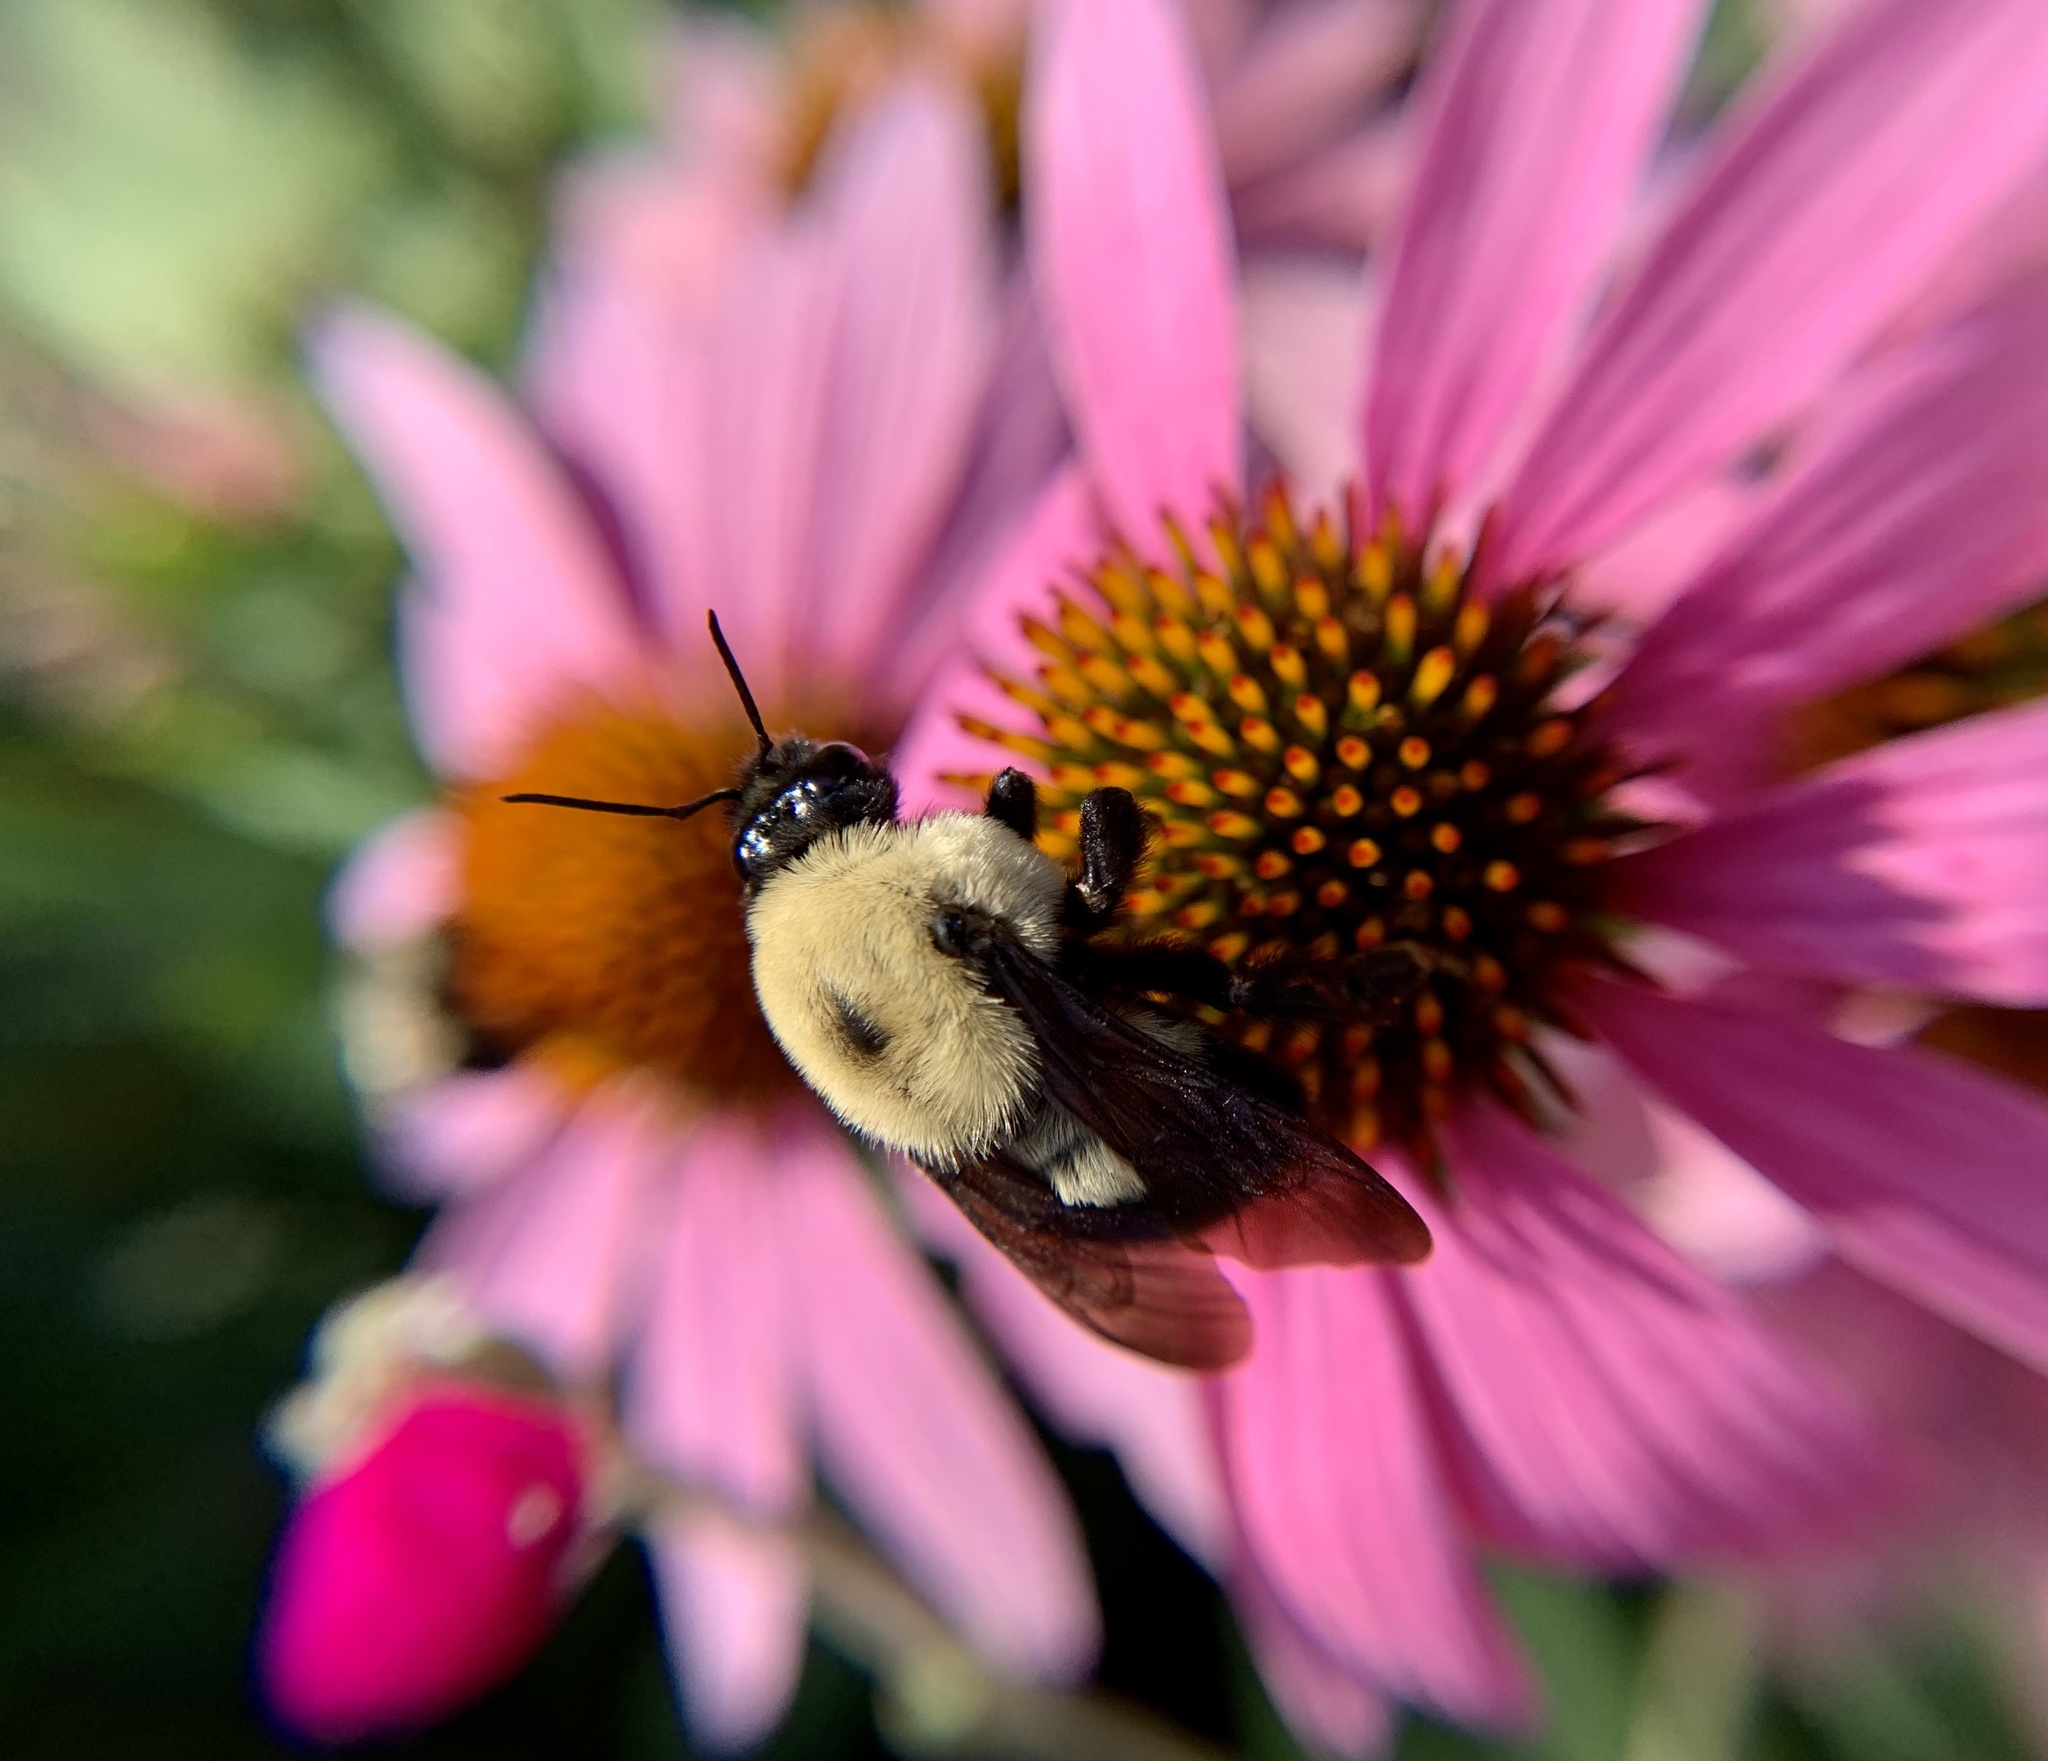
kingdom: Animalia
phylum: Arthropoda
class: Insecta
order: Hymenoptera
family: Apidae
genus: Bombus
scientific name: Bombus griseocollis
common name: Brown-belted bumble bee
